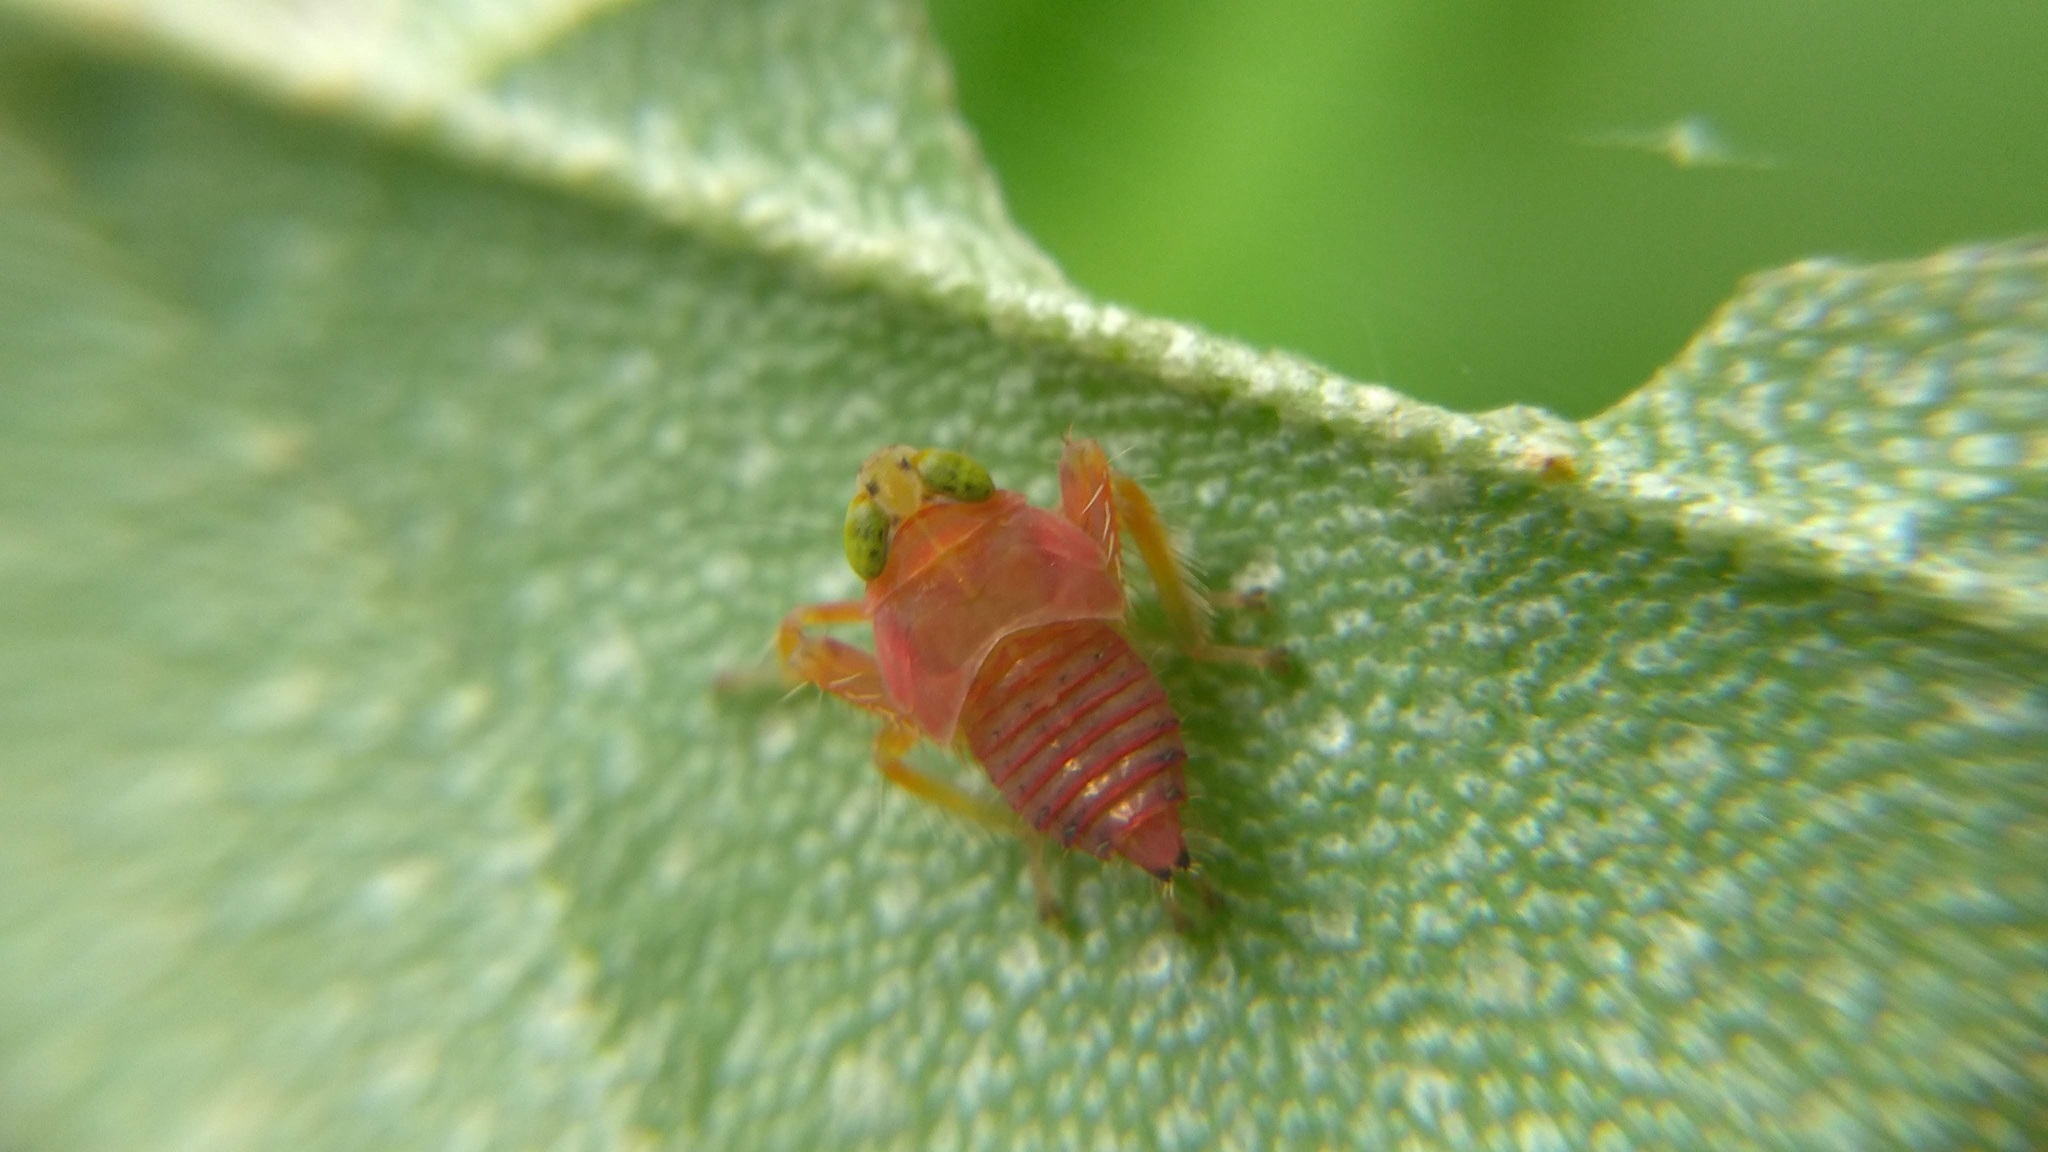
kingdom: Animalia
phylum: Arthropoda
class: Insecta
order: Hemiptera
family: Cicadellidae
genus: Jikradia
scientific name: Jikradia olitoria
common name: Coppery leafhopper
